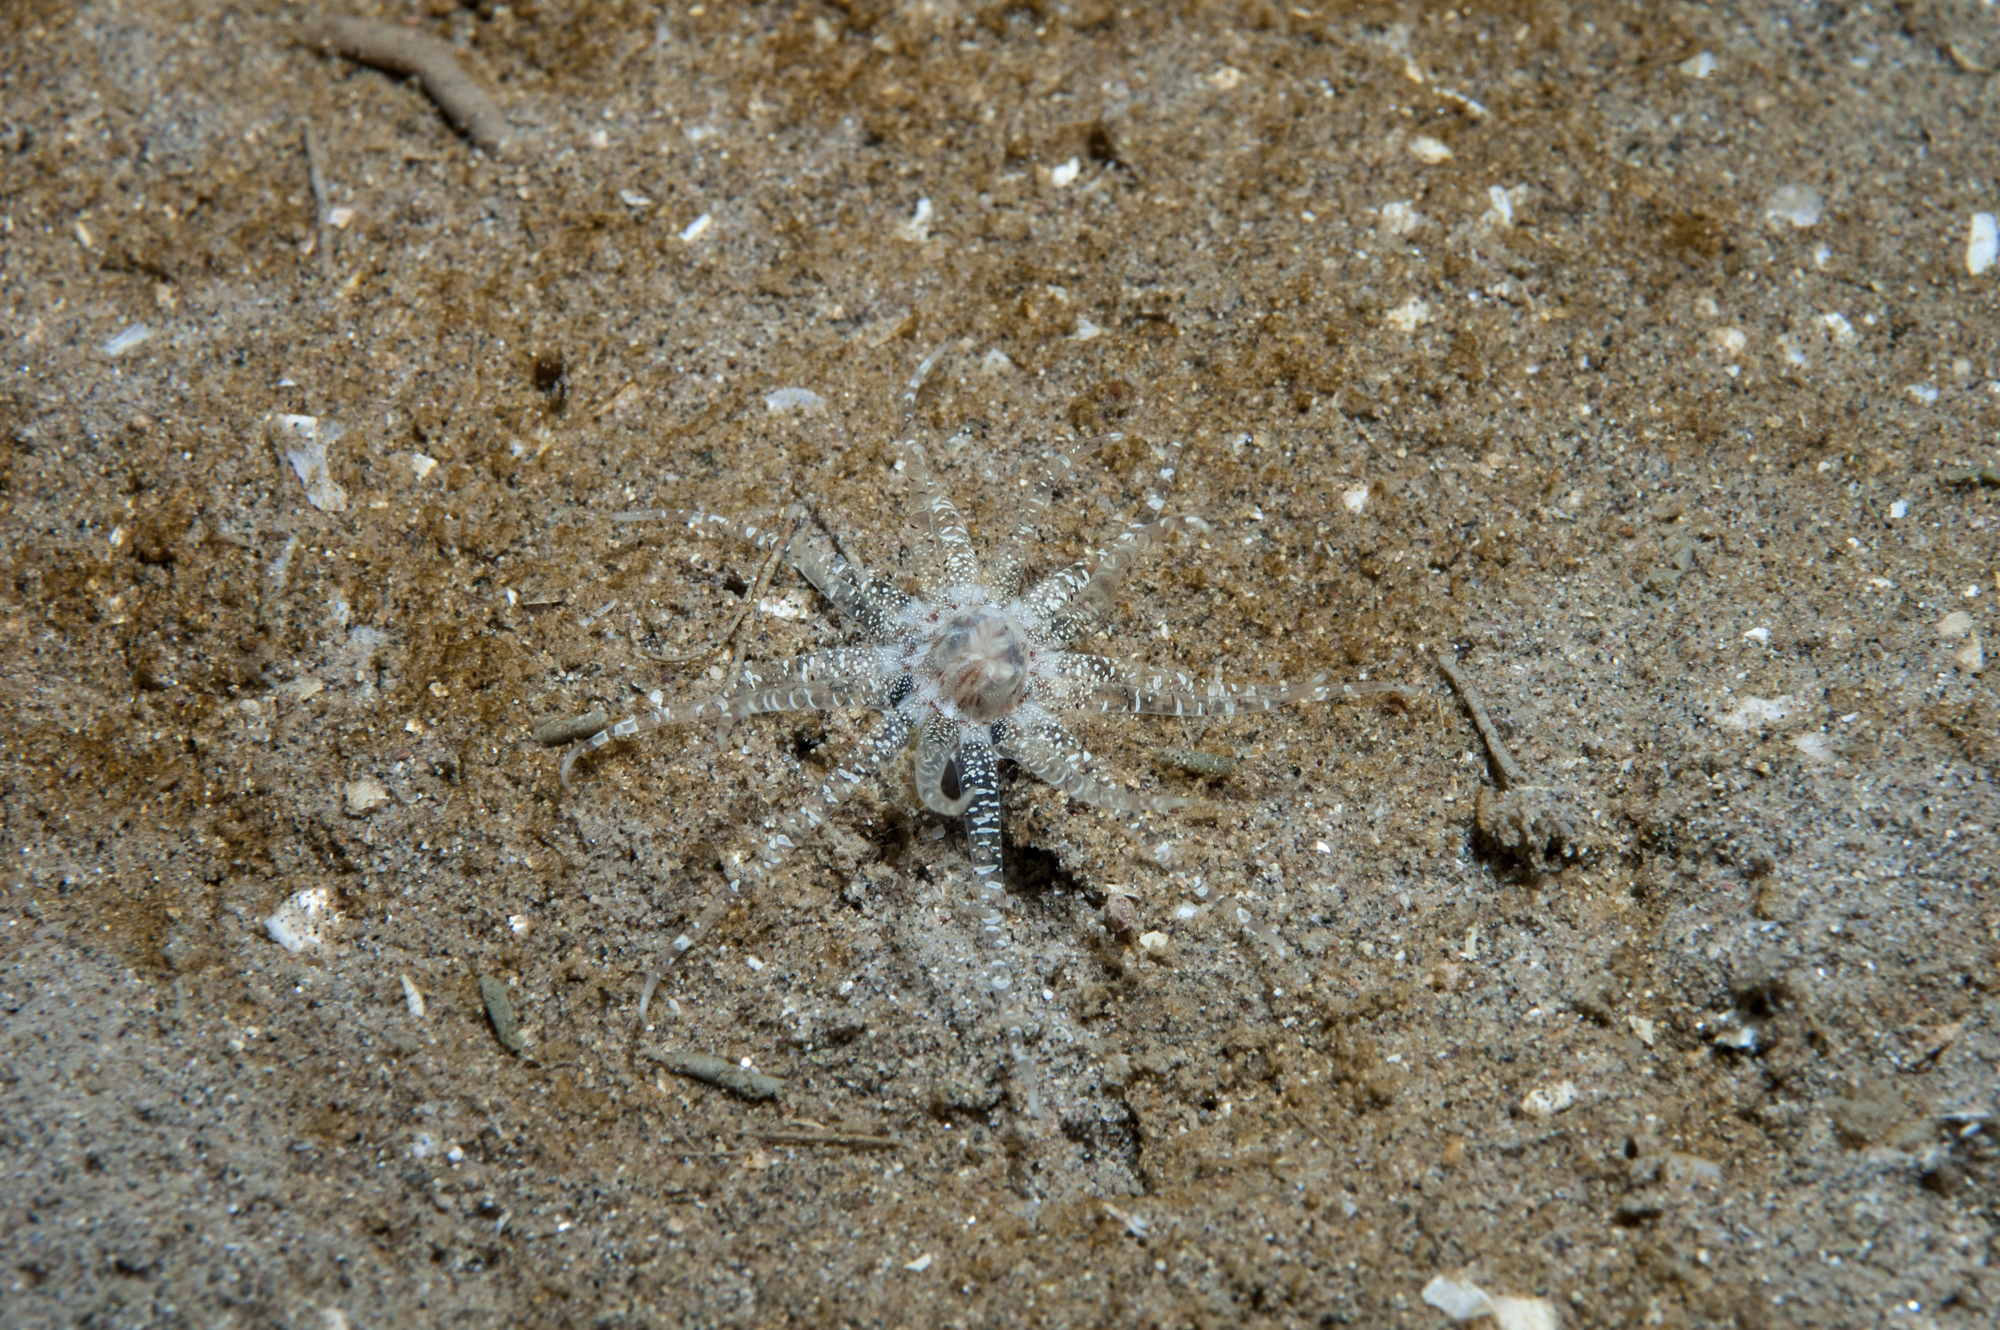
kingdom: Animalia
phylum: Cnidaria
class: Anthozoa
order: Actiniaria
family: Edwardsiidae
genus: Edwardsia
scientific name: Edwardsia claparedii
